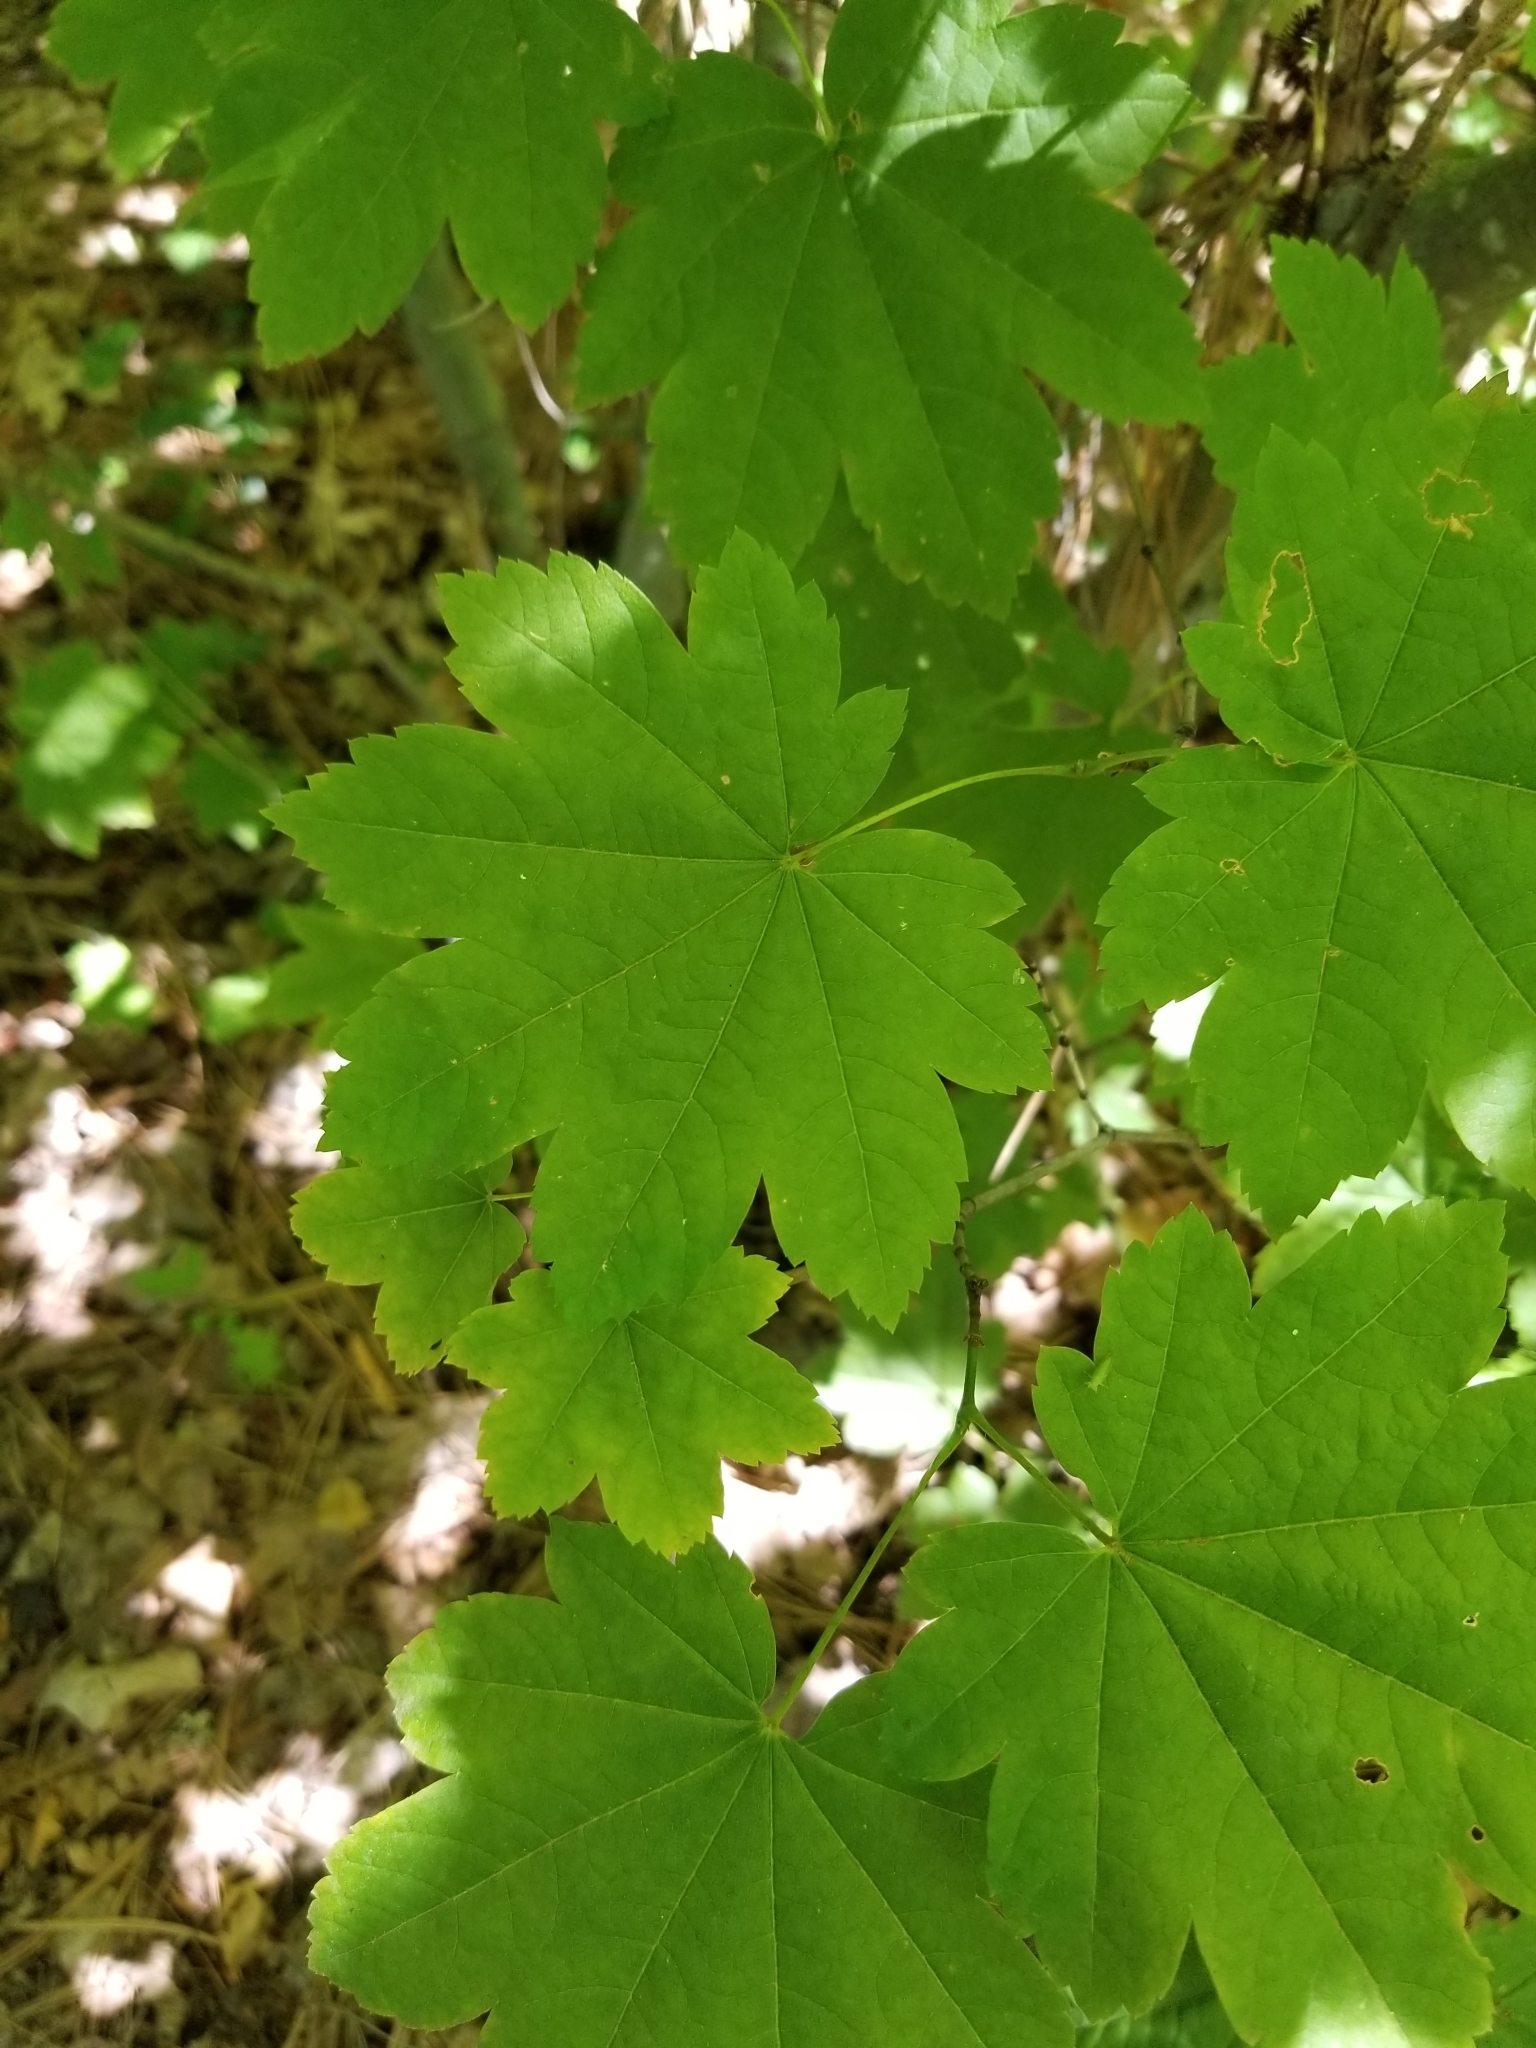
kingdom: Plantae
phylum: Tracheophyta
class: Magnoliopsida
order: Sapindales
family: Sapindaceae
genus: Acer
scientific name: Acer circinatum
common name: Vine maple
